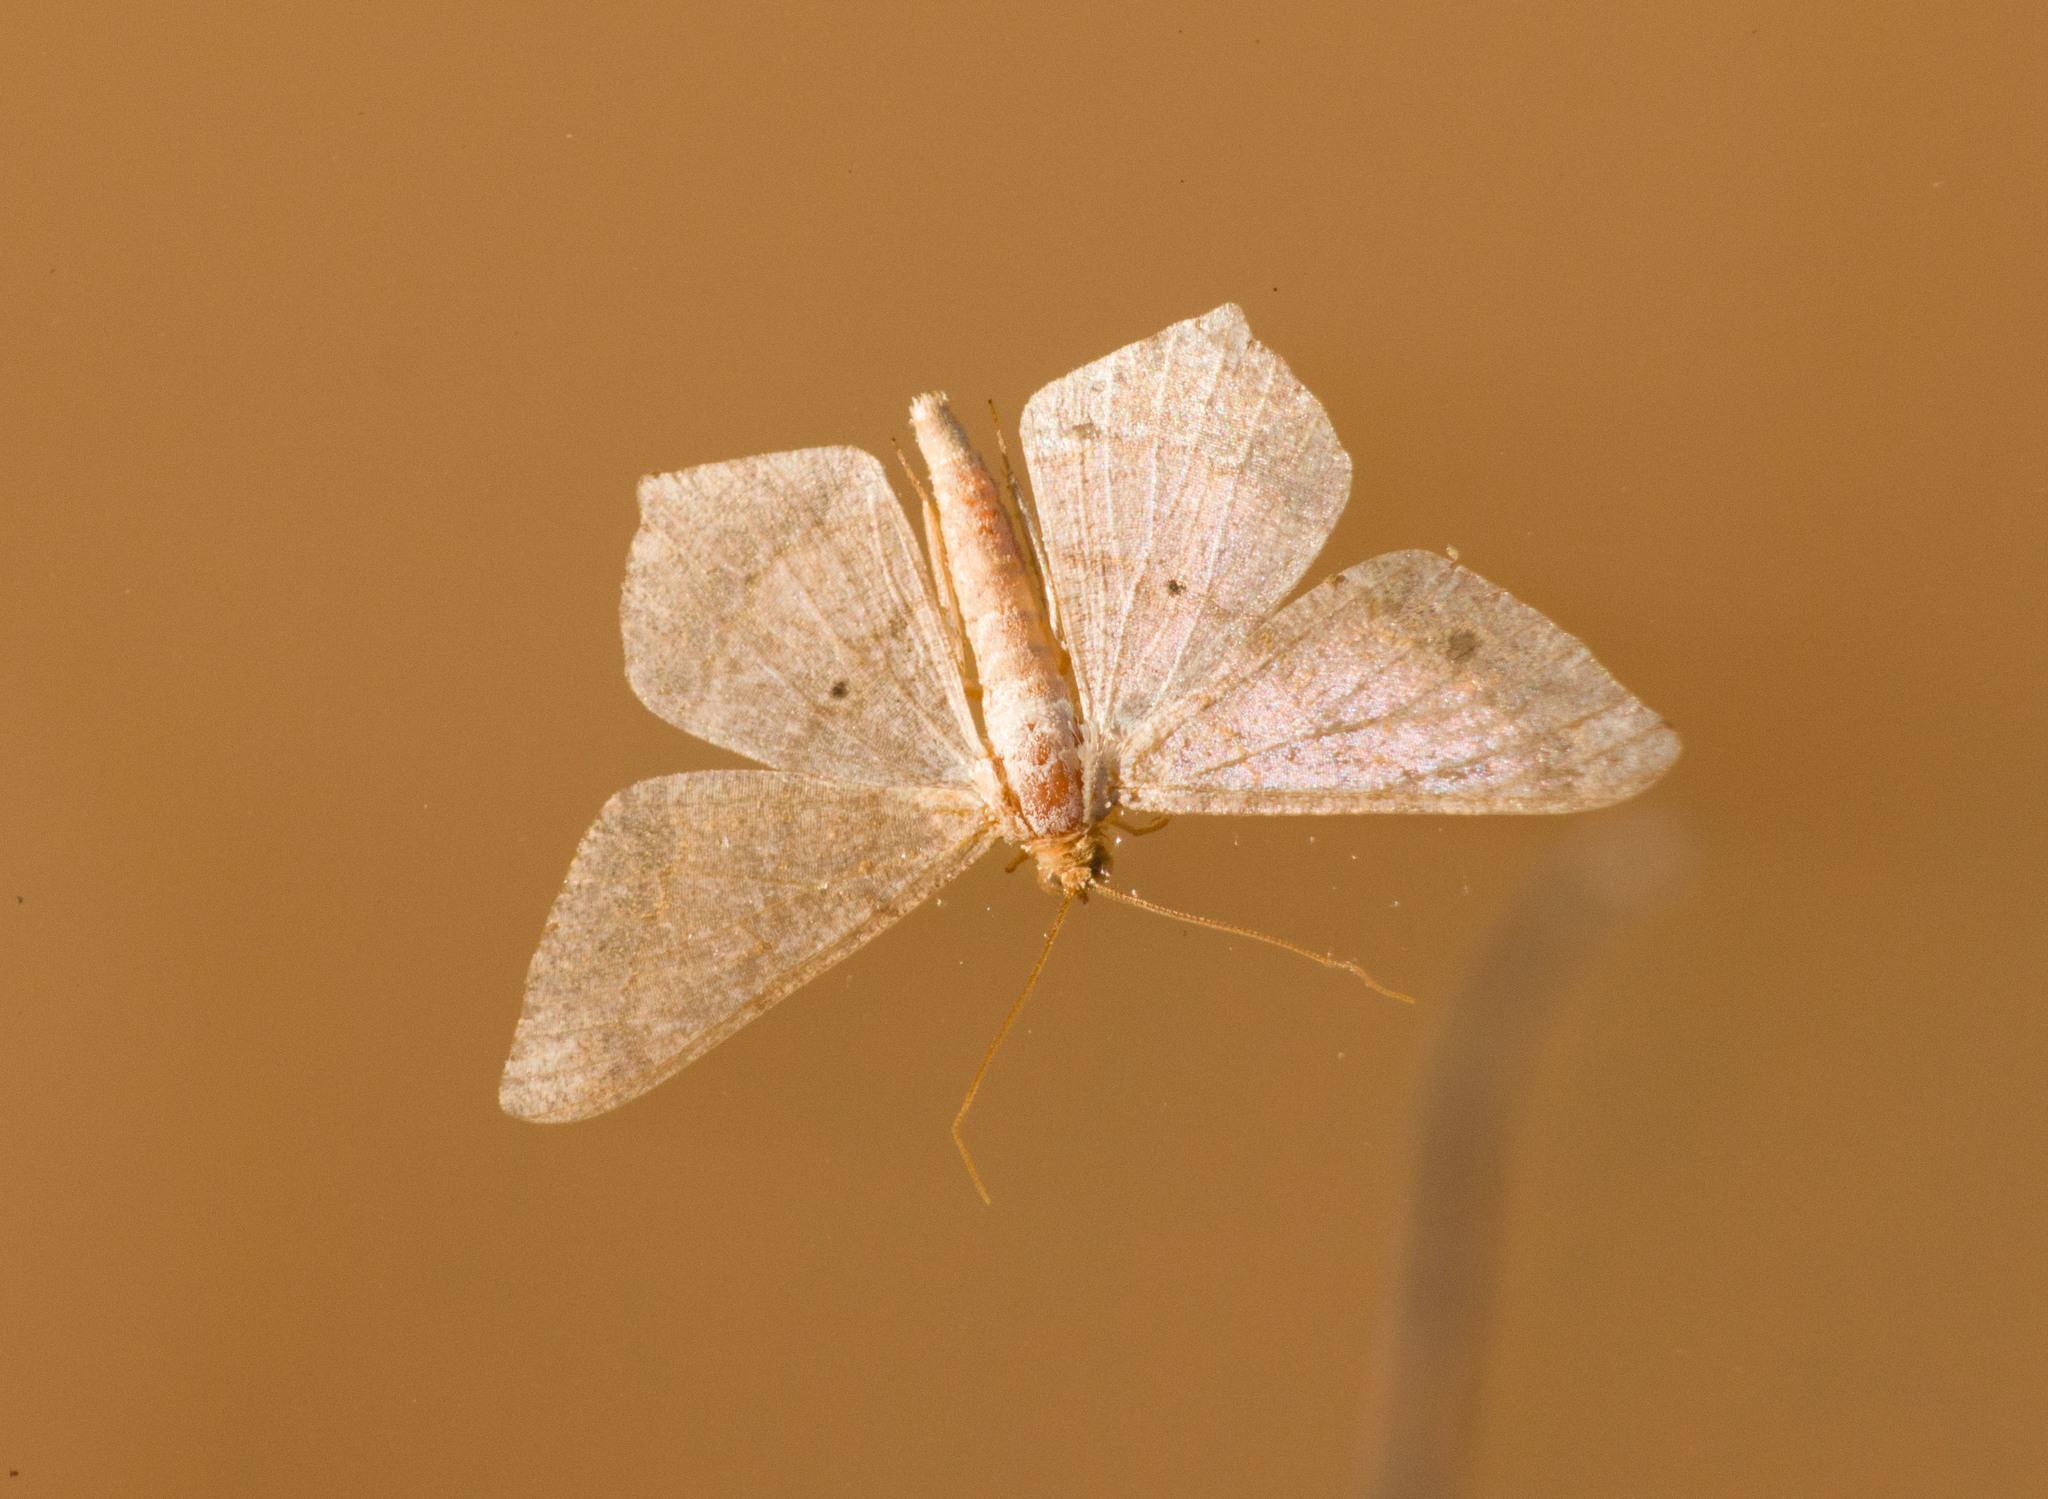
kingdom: Animalia
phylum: Arthropoda
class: Insecta
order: Lepidoptera
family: Geometridae
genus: Macaria
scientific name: Macaria abydata
